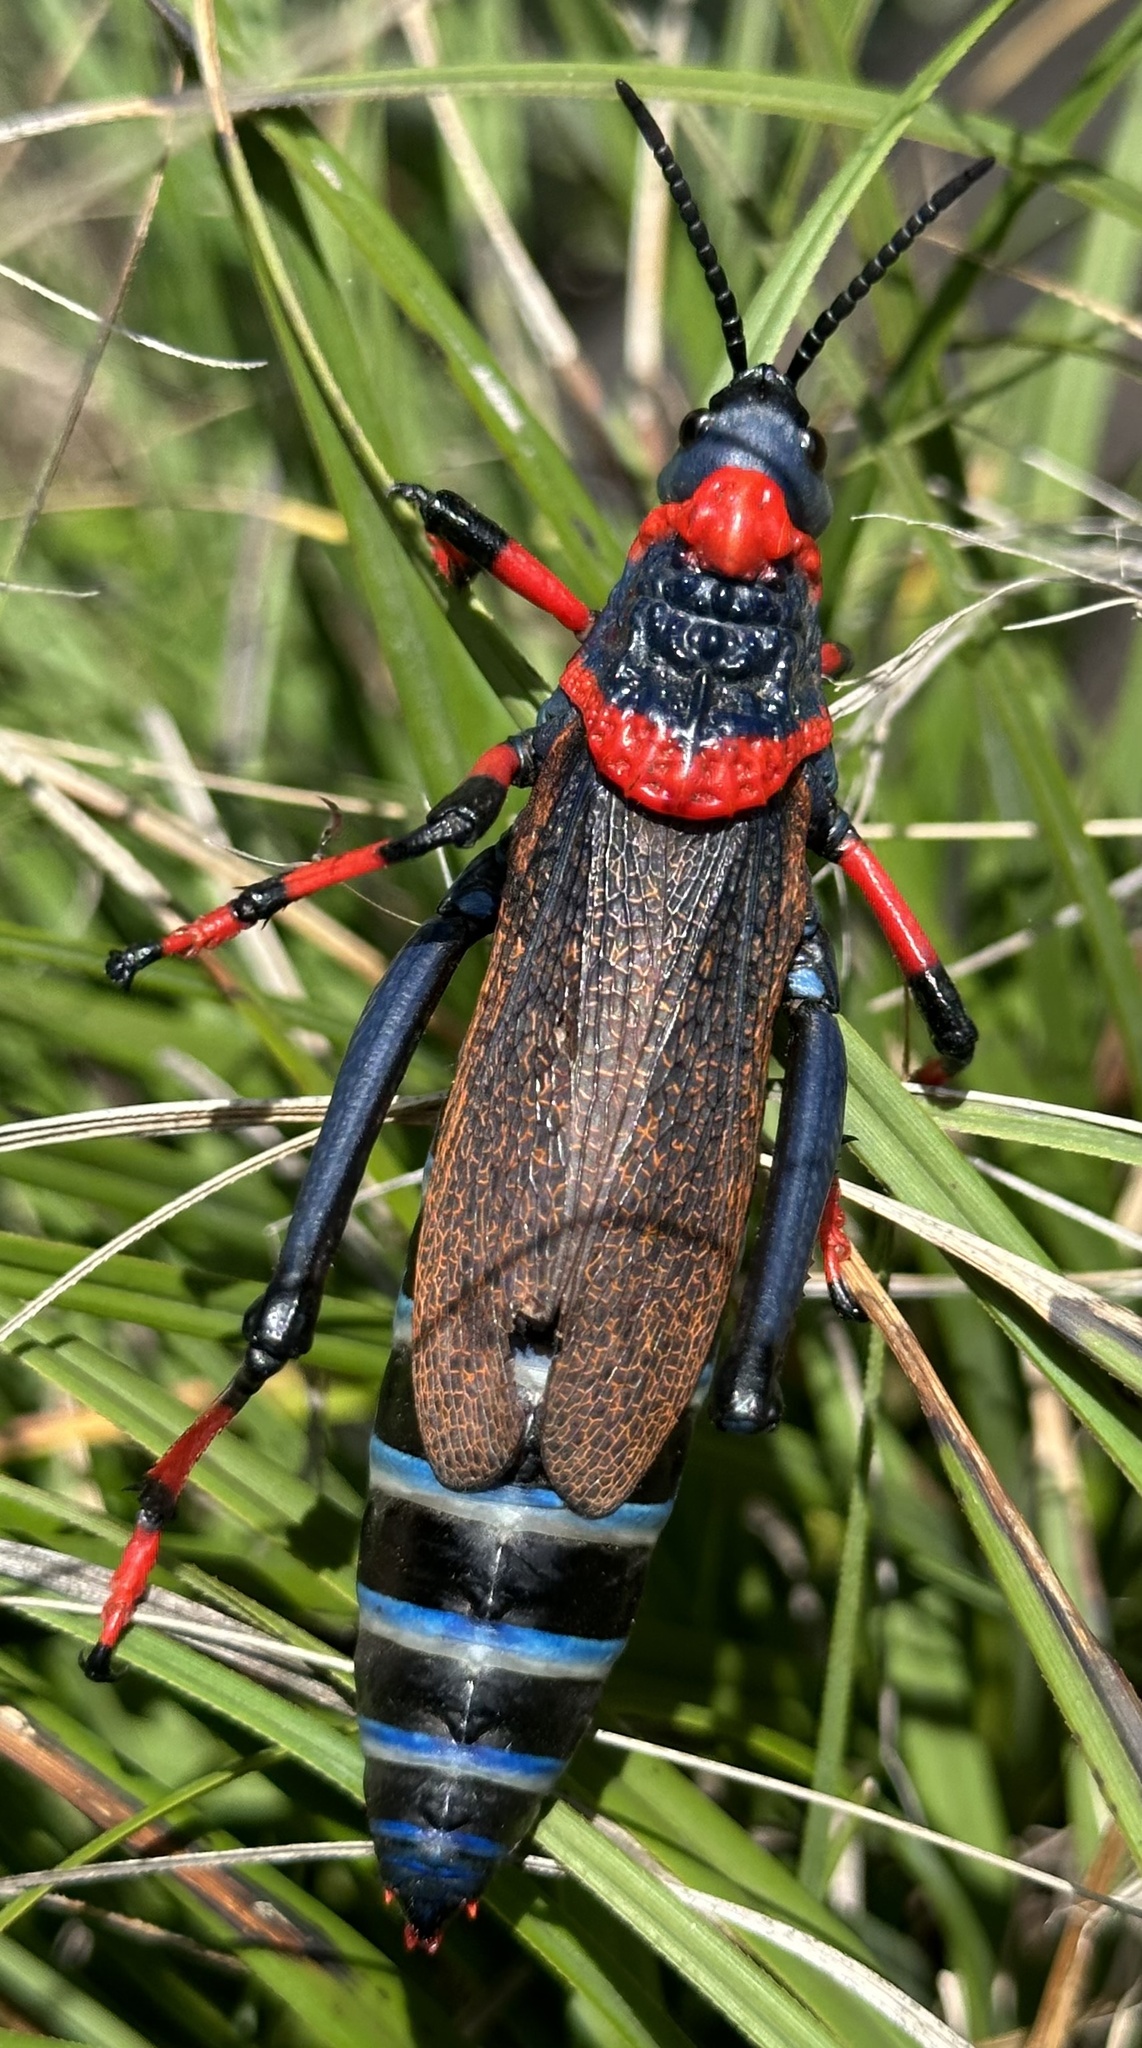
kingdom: Animalia
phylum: Arthropoda
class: Insecta
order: Orthoptera
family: Pyrgomorphidae
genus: Dictyophorus
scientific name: Dictyophorus spumans
